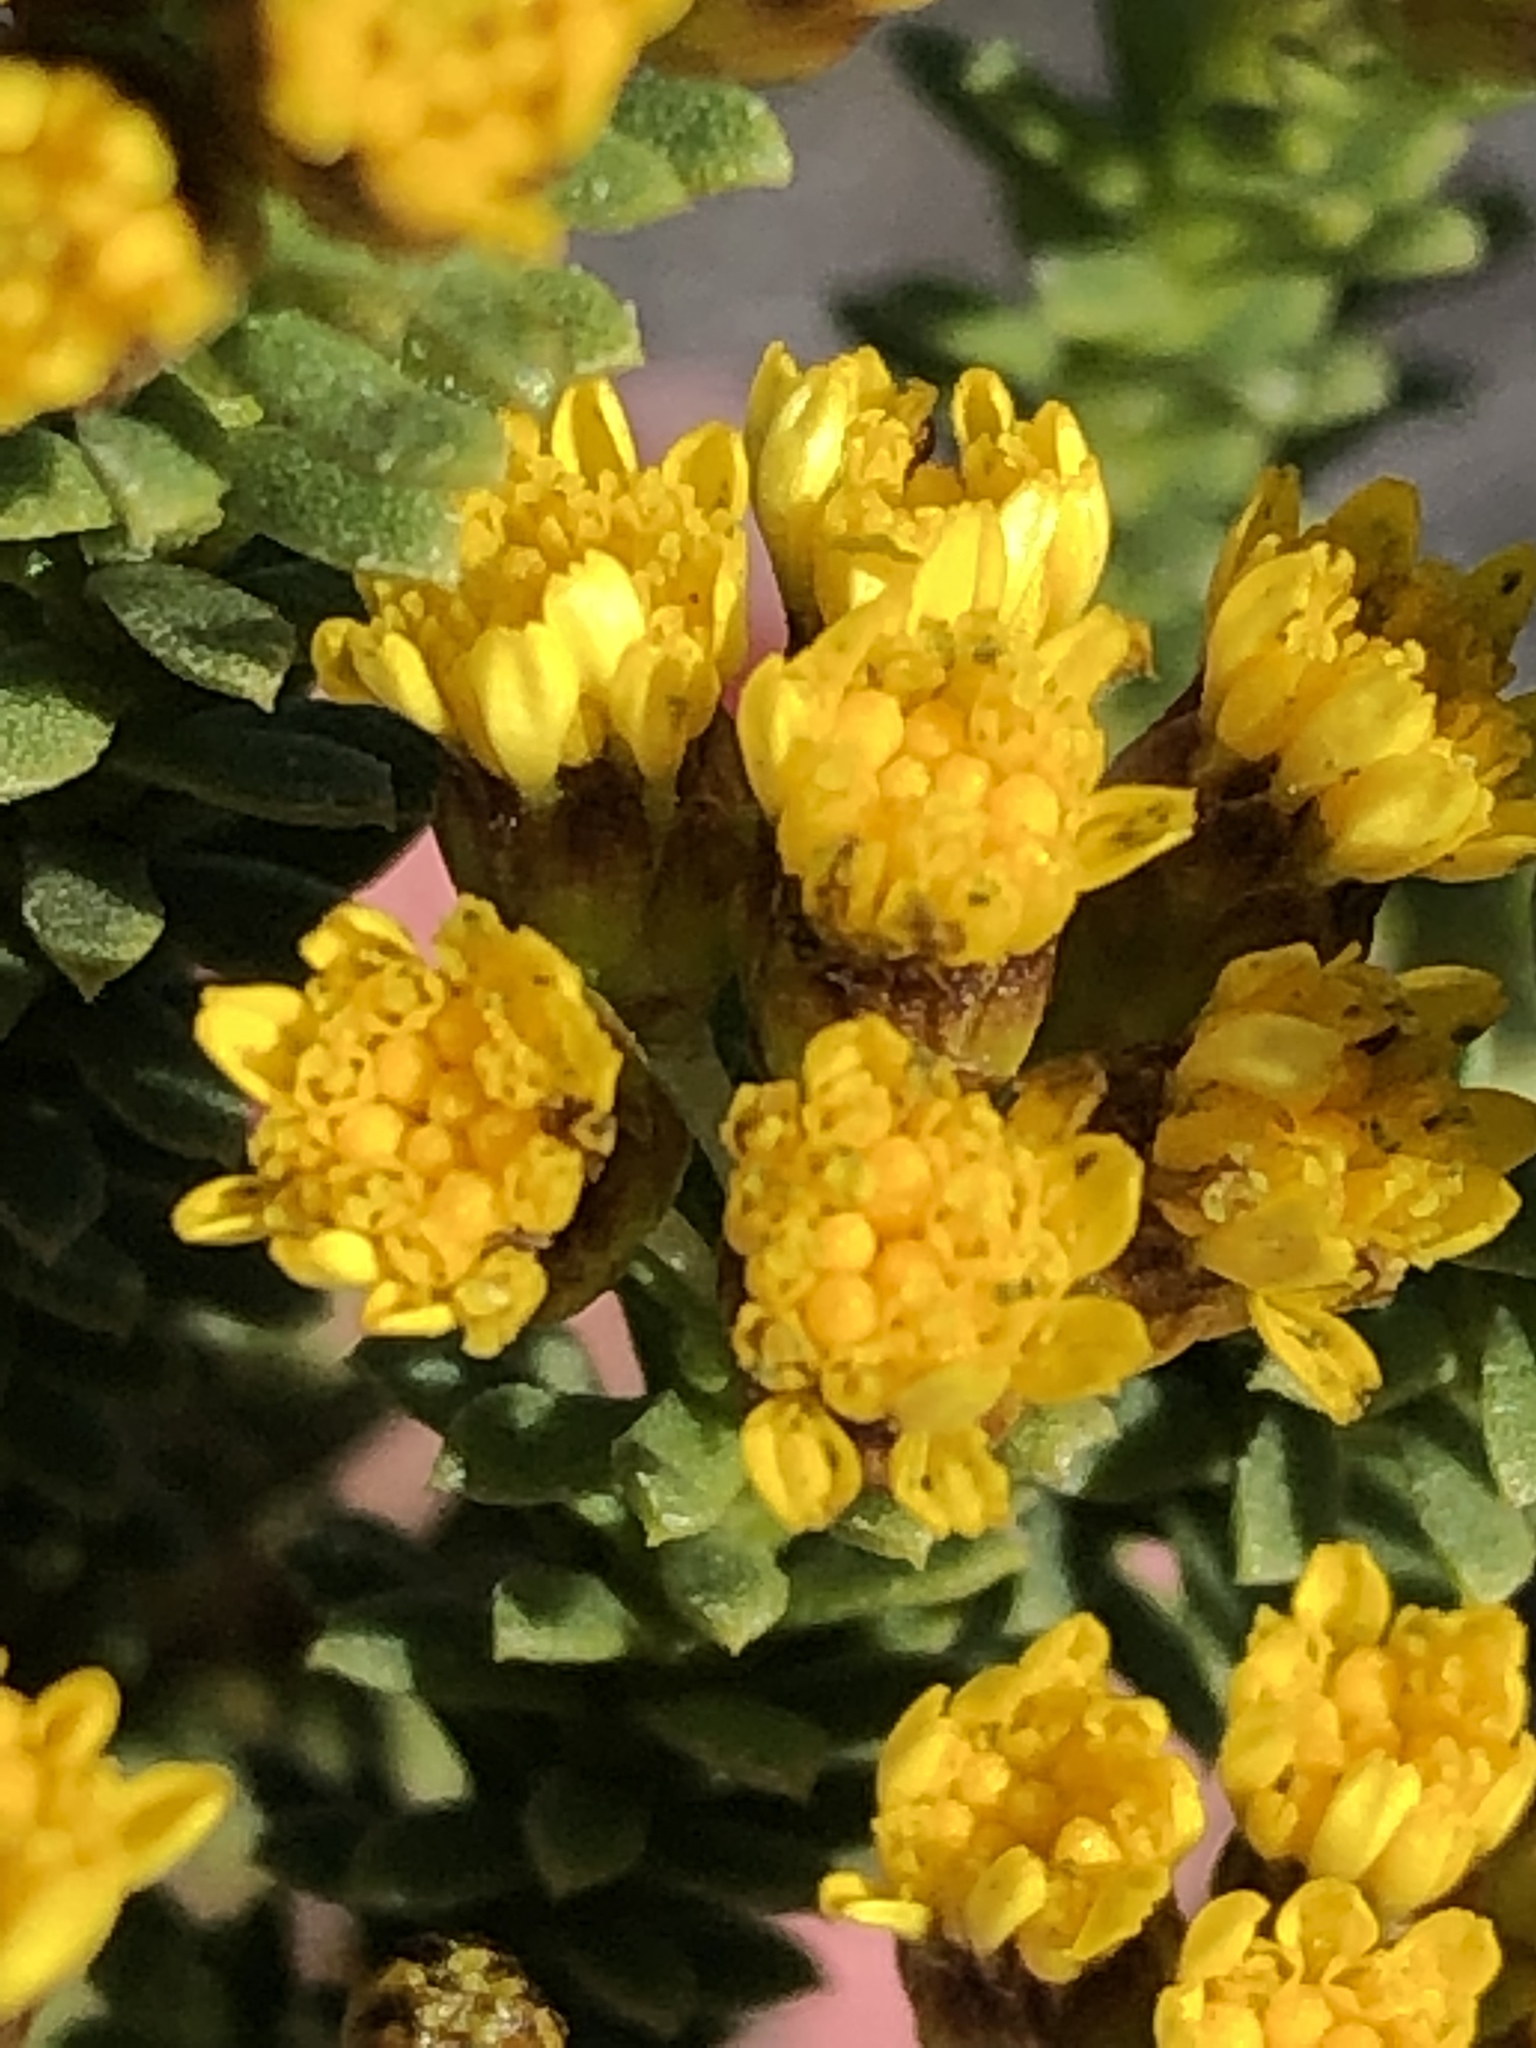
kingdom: Plantae
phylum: Tracheophyta
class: Magnoliopsida
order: Asterales
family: Asteraceae
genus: Oedera
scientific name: Oedera genistifolia
